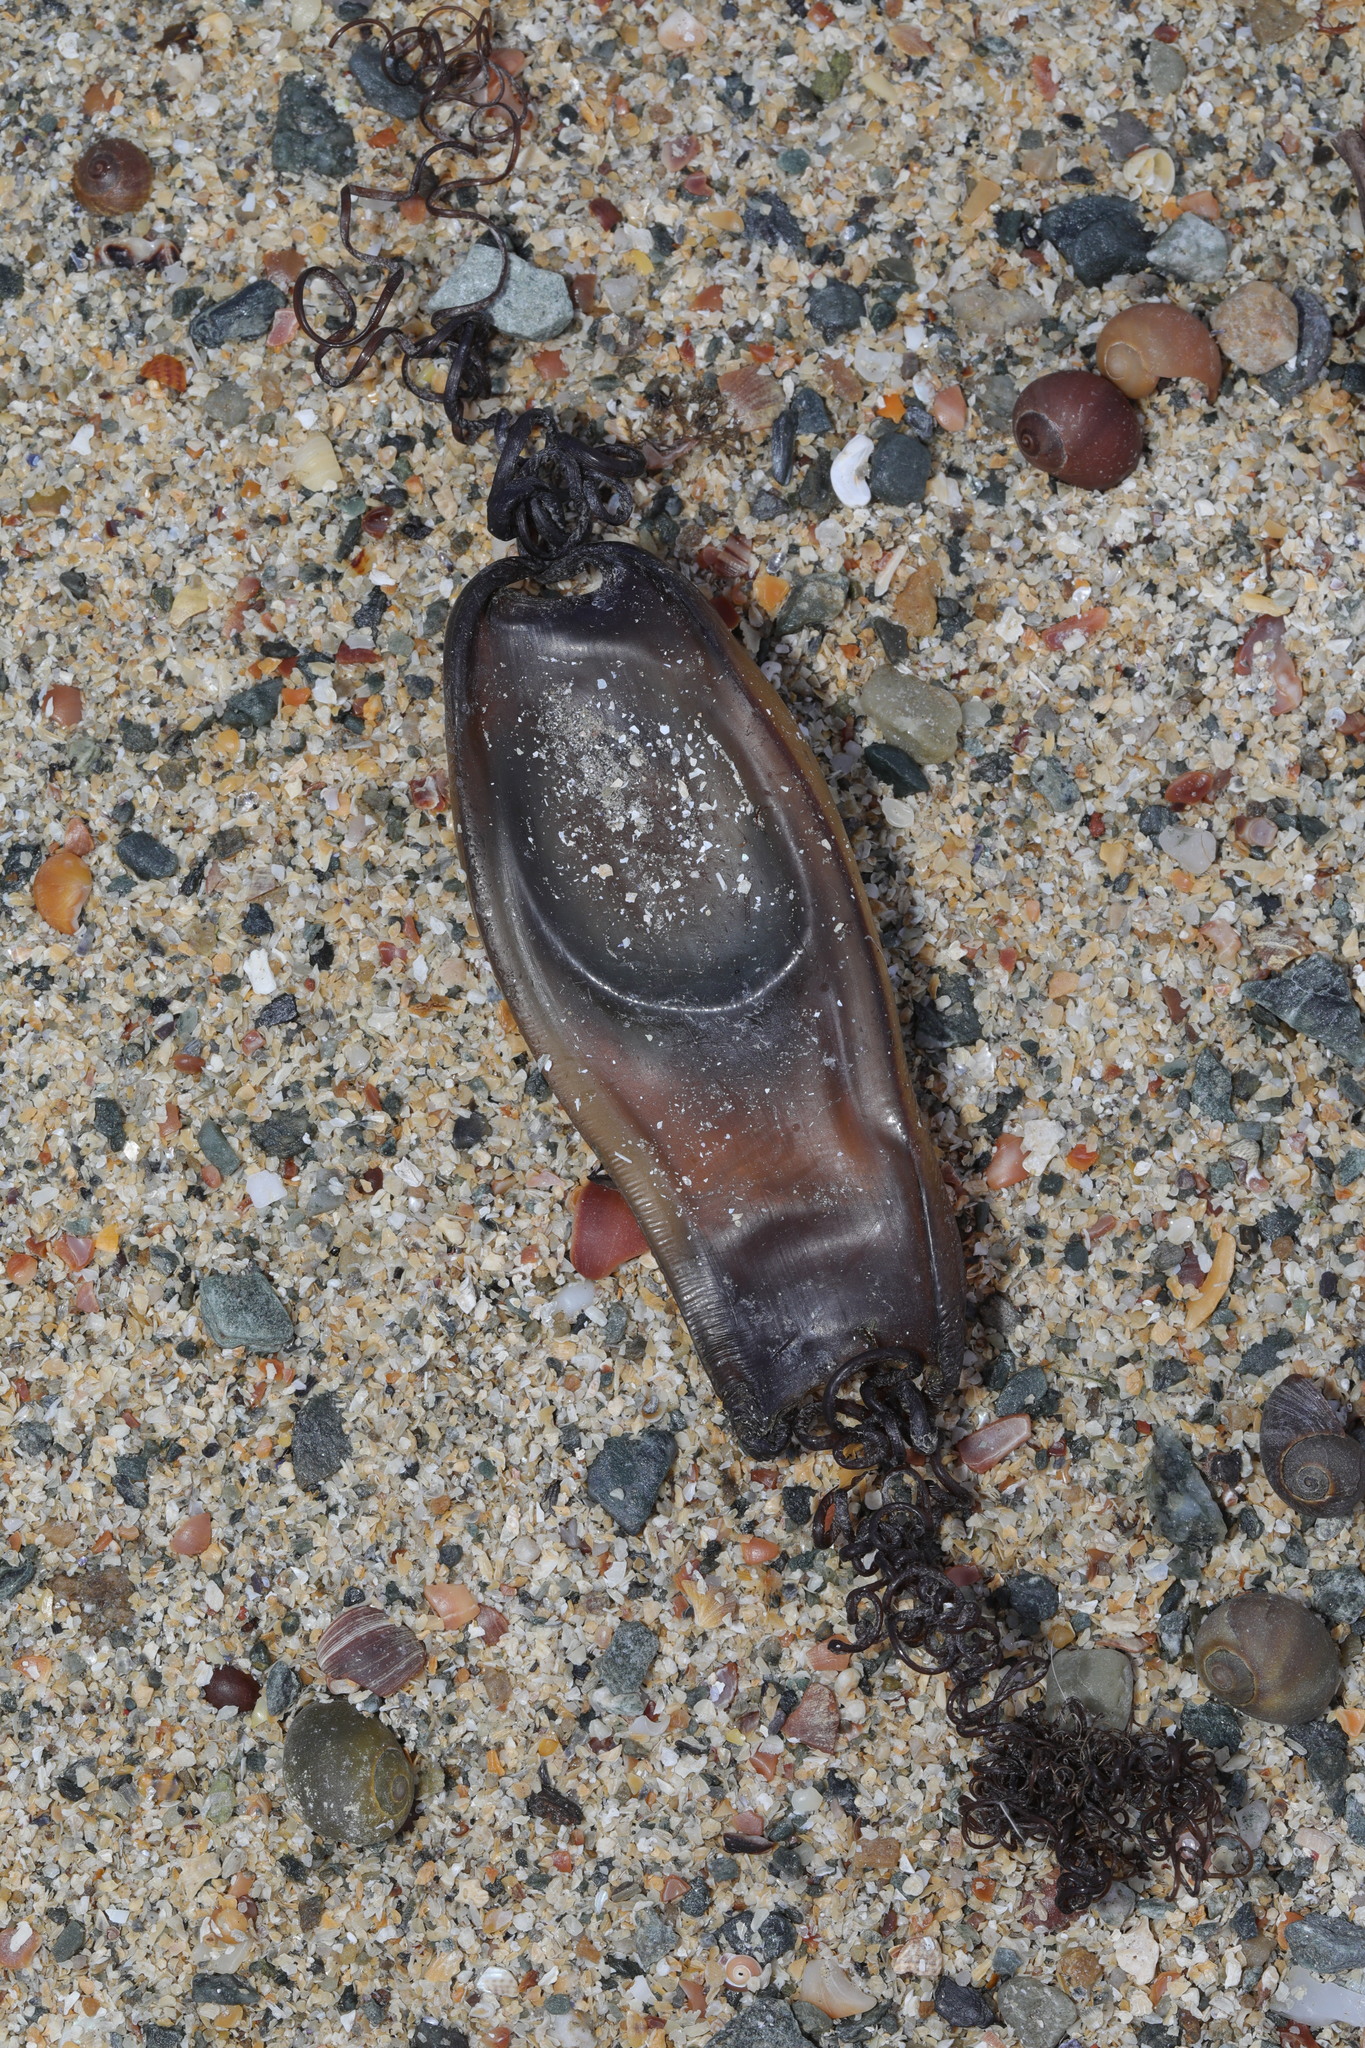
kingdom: Animalia
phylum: Chordata
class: Elasmobranchii
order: Carcharhiniformes
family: Scyliorhinidae
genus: Scyliorhinus
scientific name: Scyliorhinus stellaris
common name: Nursehound
